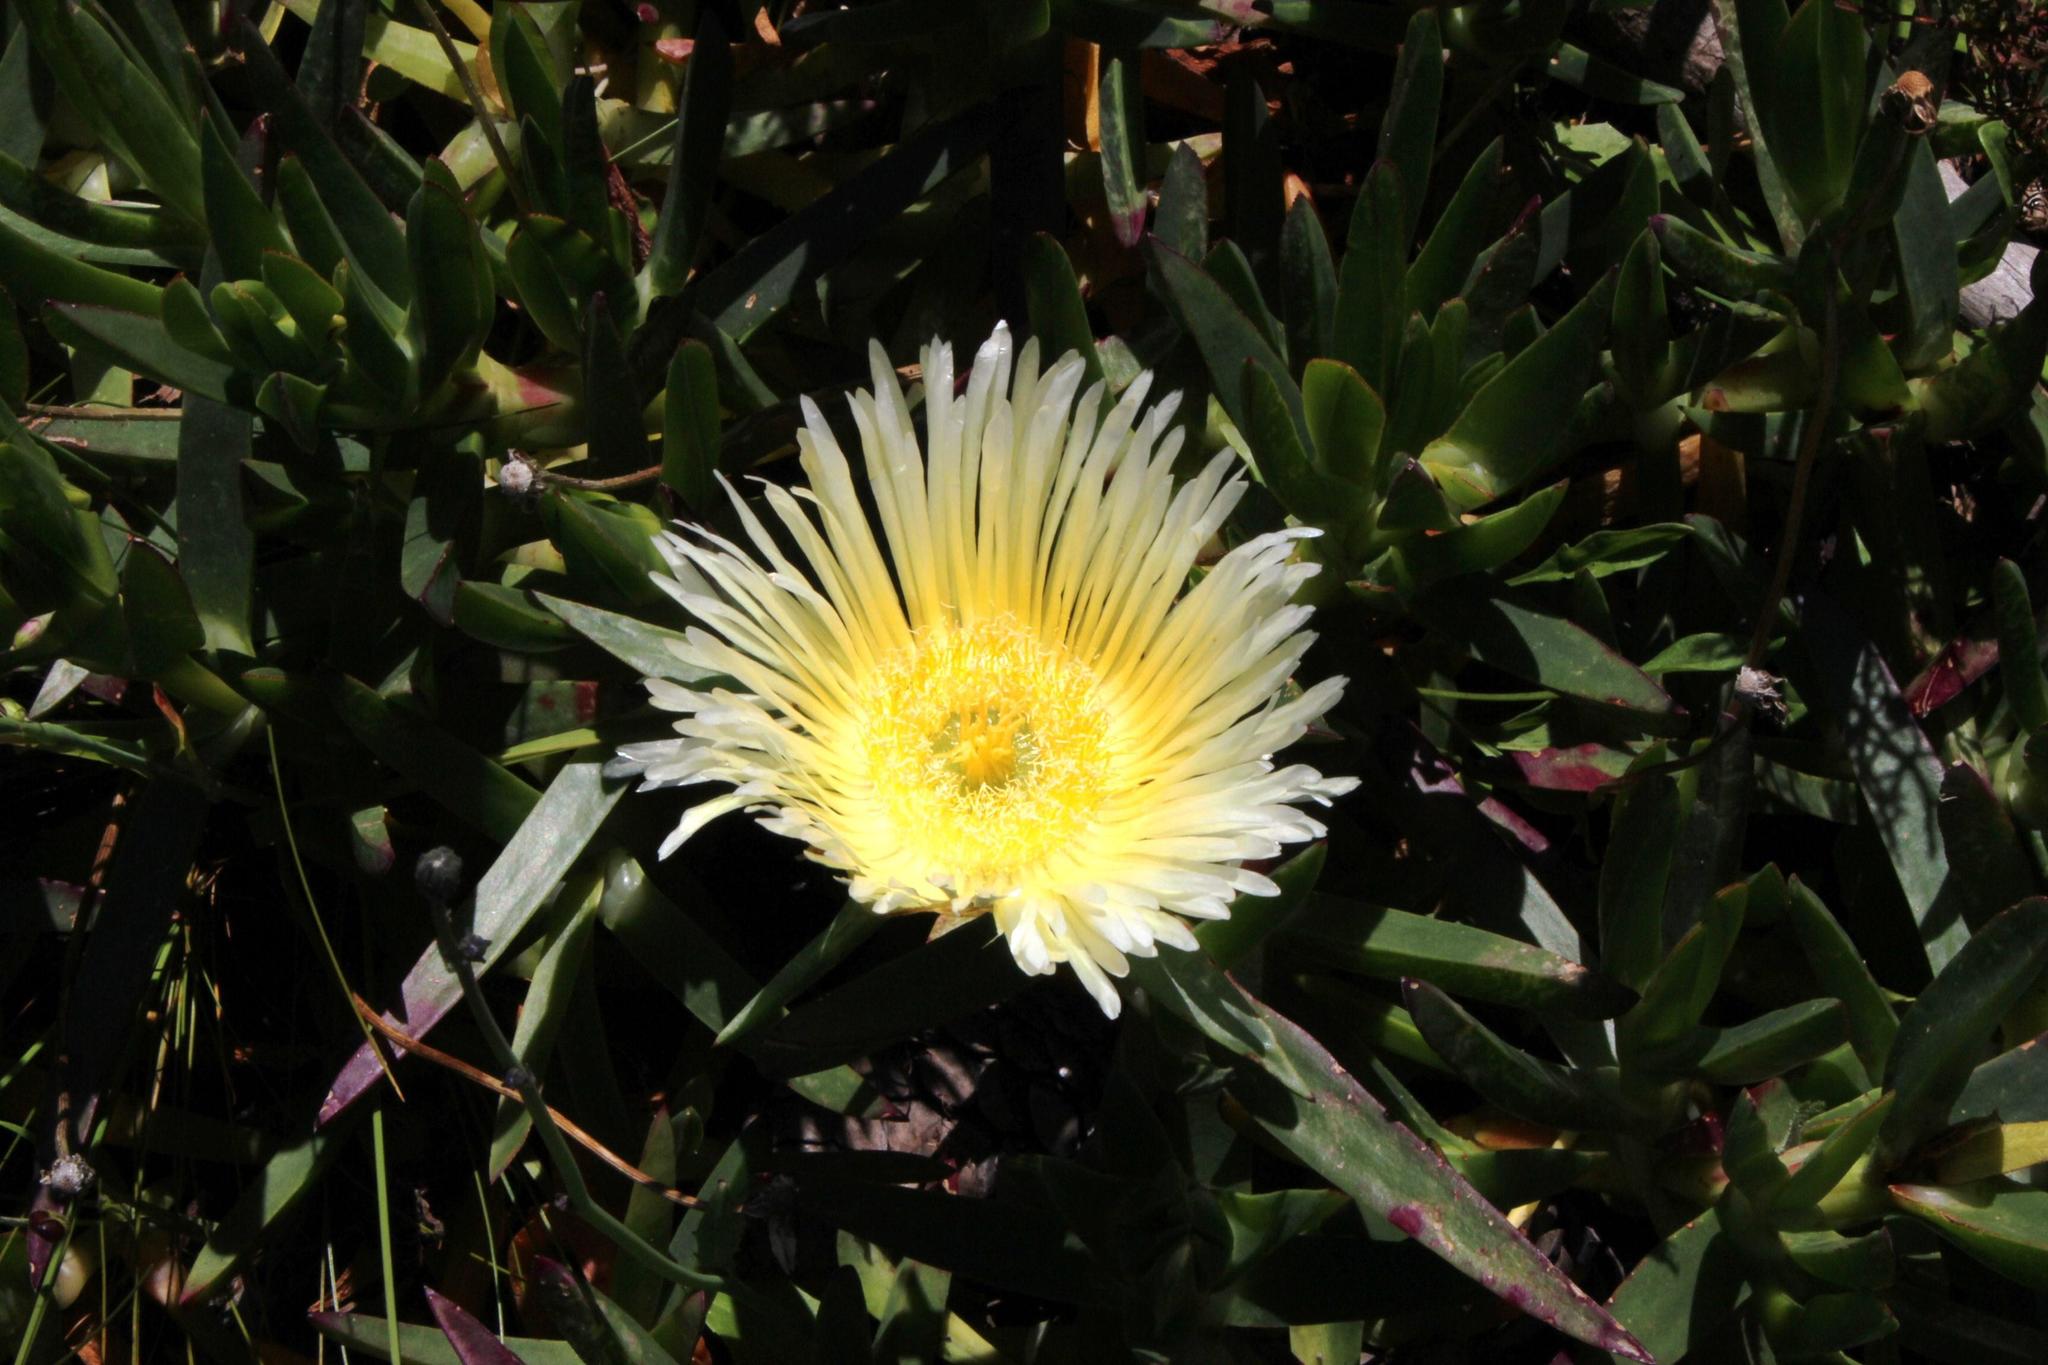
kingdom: Plantae
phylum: Tracheophyta
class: Magnoliopsida
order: Caryophyllales
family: Aizoaceae
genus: Carpobrotus
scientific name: Carpobrotus edulis
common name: Hottentot-fig
